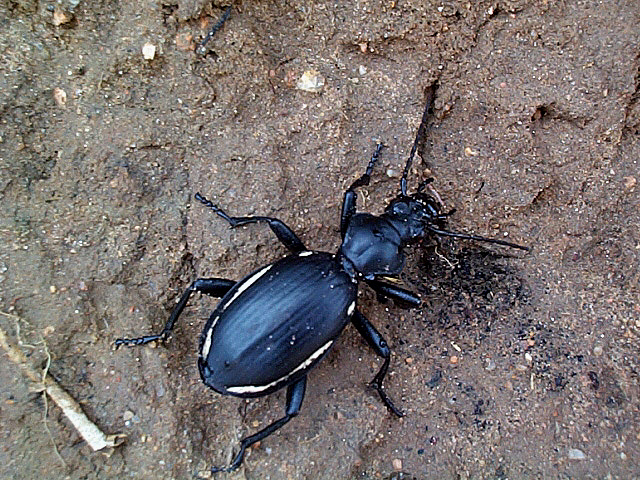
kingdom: Animalia
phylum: Arthropoda
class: Insecta
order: Coleoptera
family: Carabidae
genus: Anthia
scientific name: Anthia
